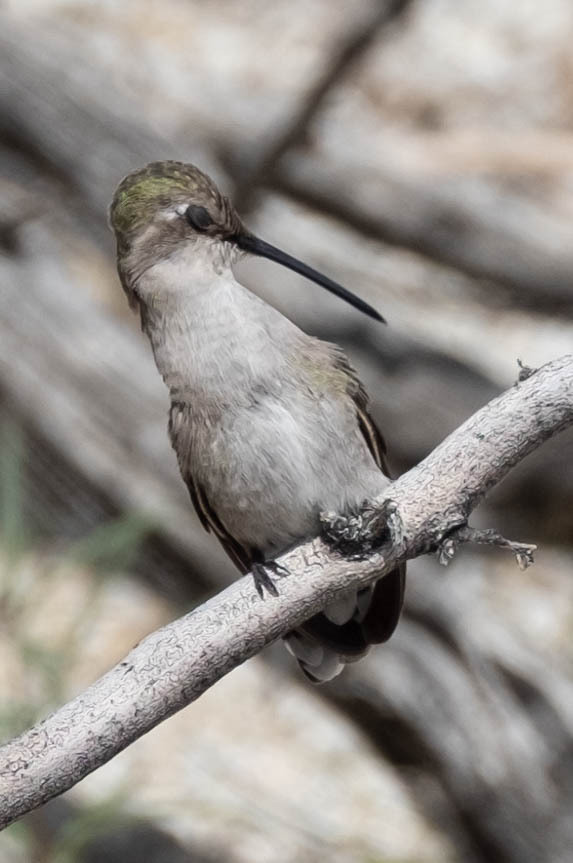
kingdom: Animalia
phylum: Chordata
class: Aves
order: Apodiformes
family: Trochilidae
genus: Calypte
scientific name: Calypte costae
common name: Costa's hummingbird
